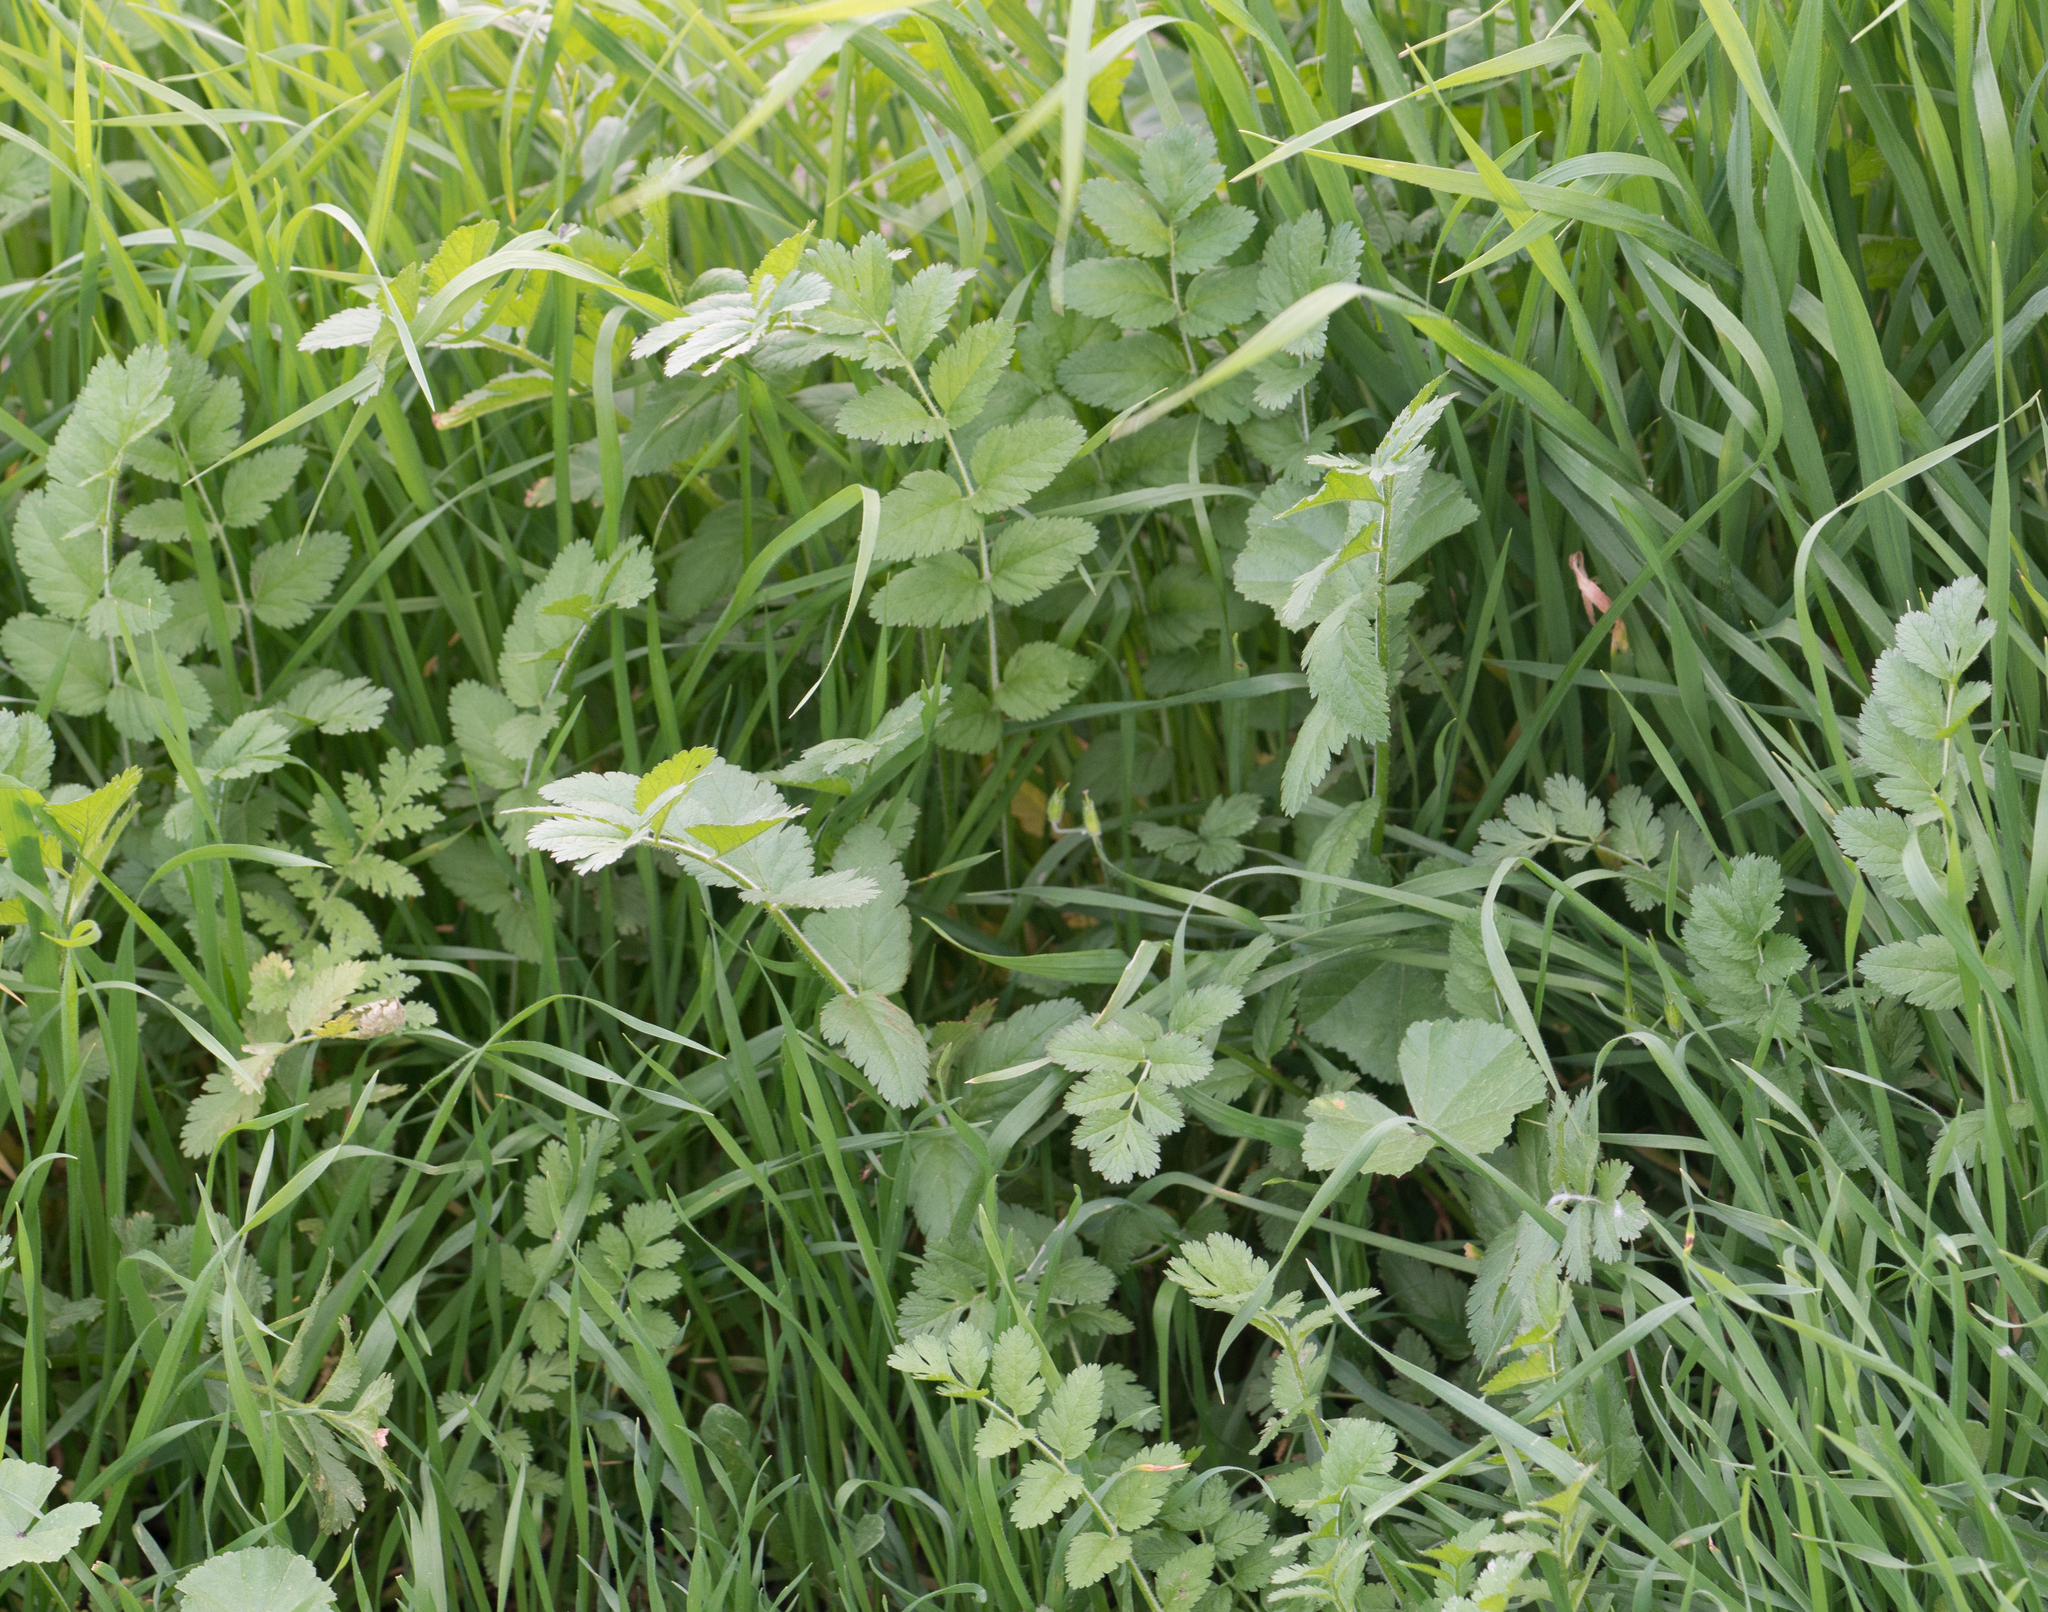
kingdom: Plantae
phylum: Tracheophyta
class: Magnoliopsida
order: Geraniales
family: Geraniaceae
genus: Erodium
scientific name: Erodium moschatum
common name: Musk stork's-bill
